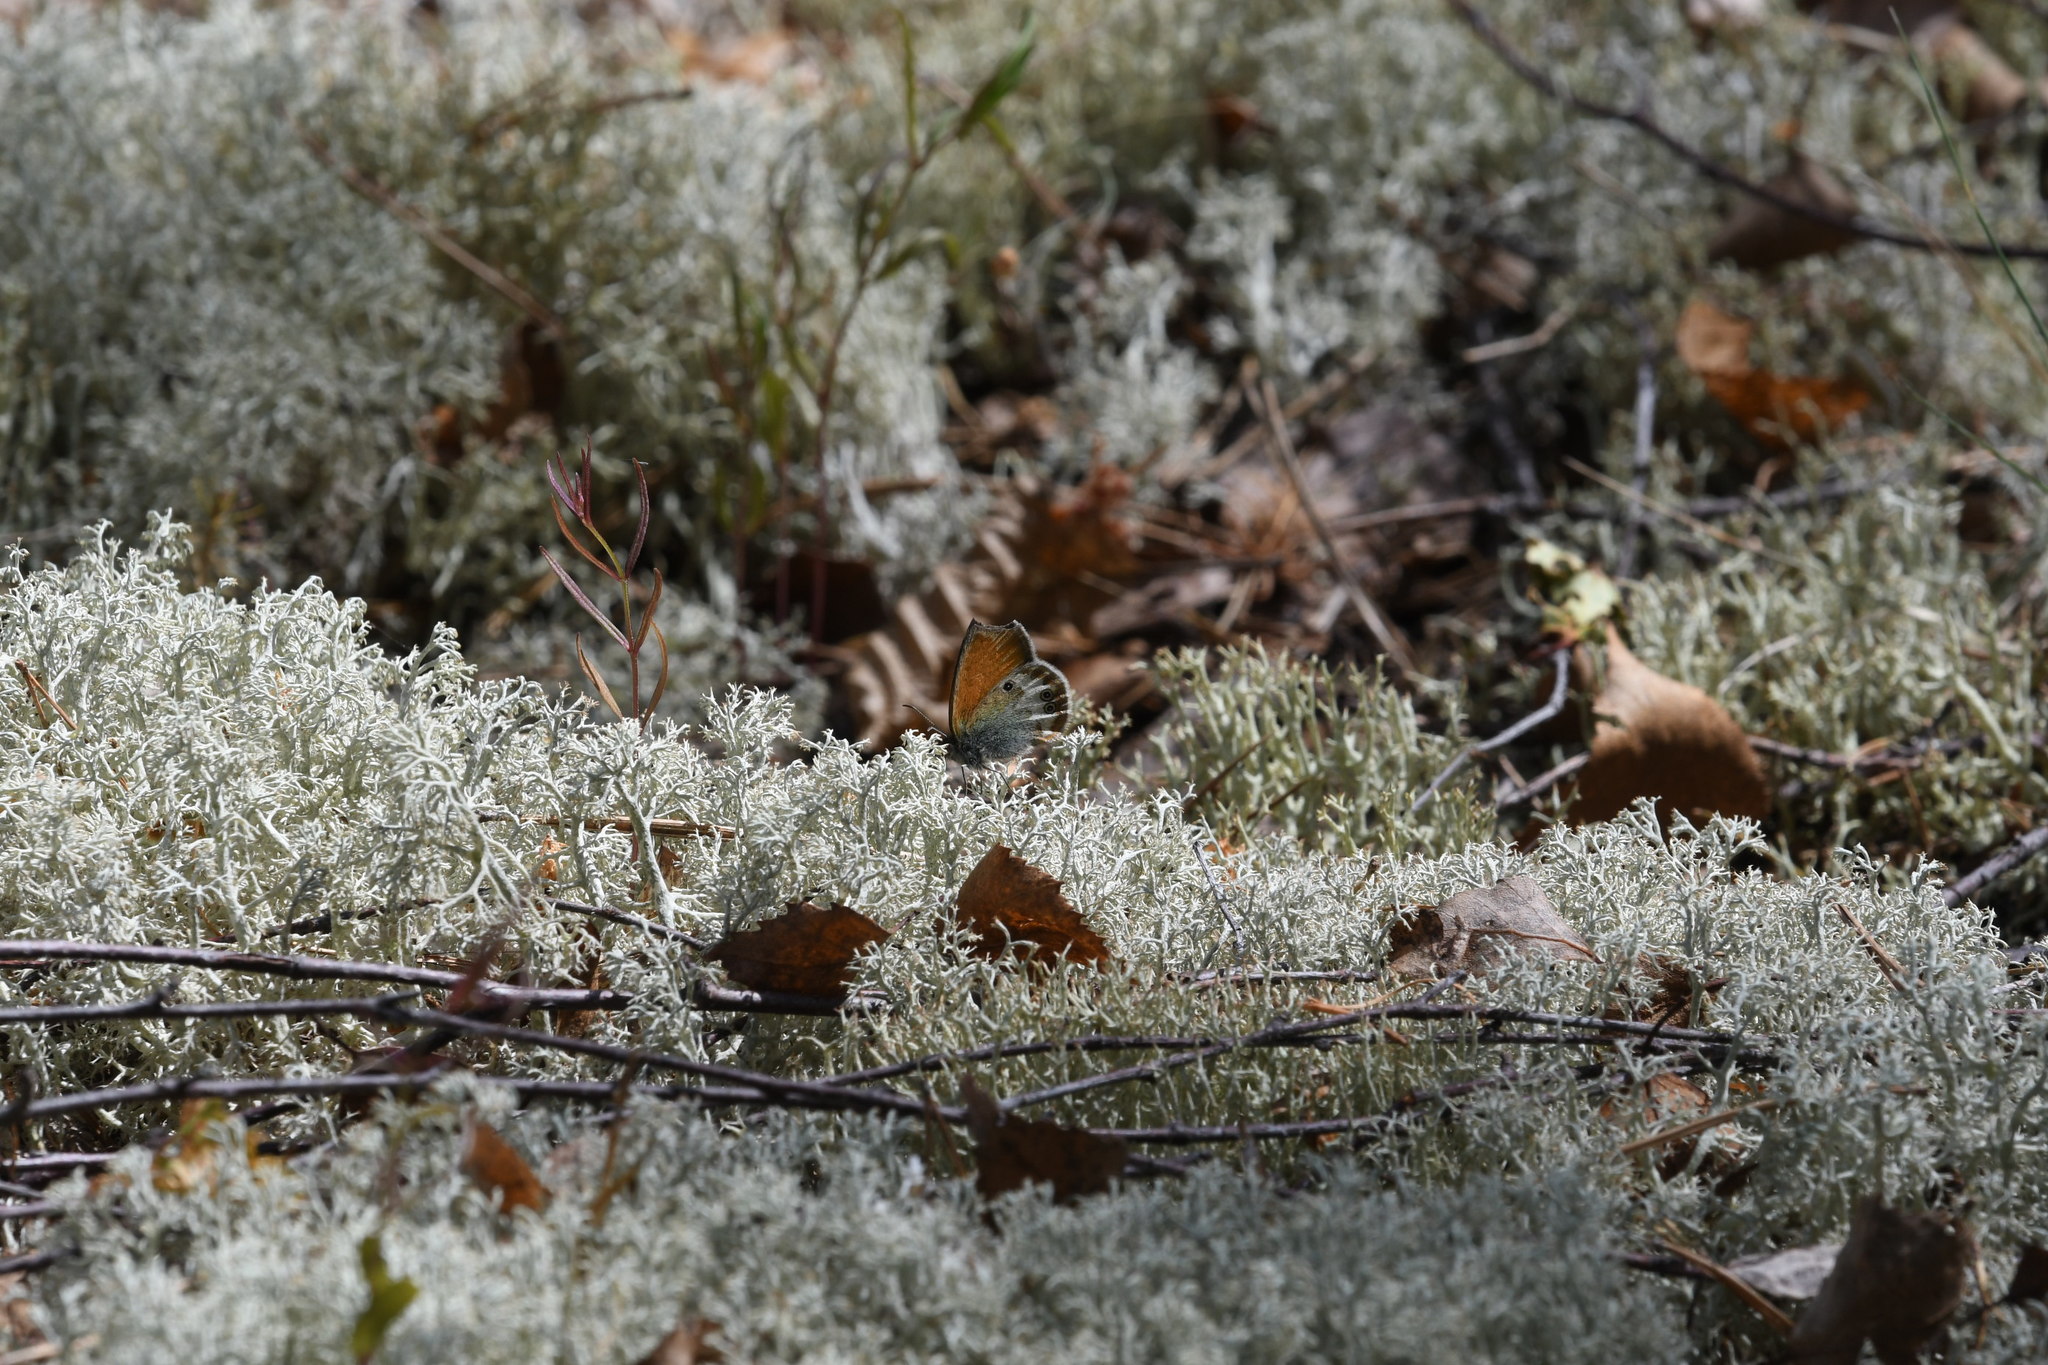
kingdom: Animalia
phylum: Arthropoda
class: Insecta
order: Lepidoptera
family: Nymphalidae
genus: Coenonympha
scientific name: Coenonympha arcania
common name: Pearly heath
